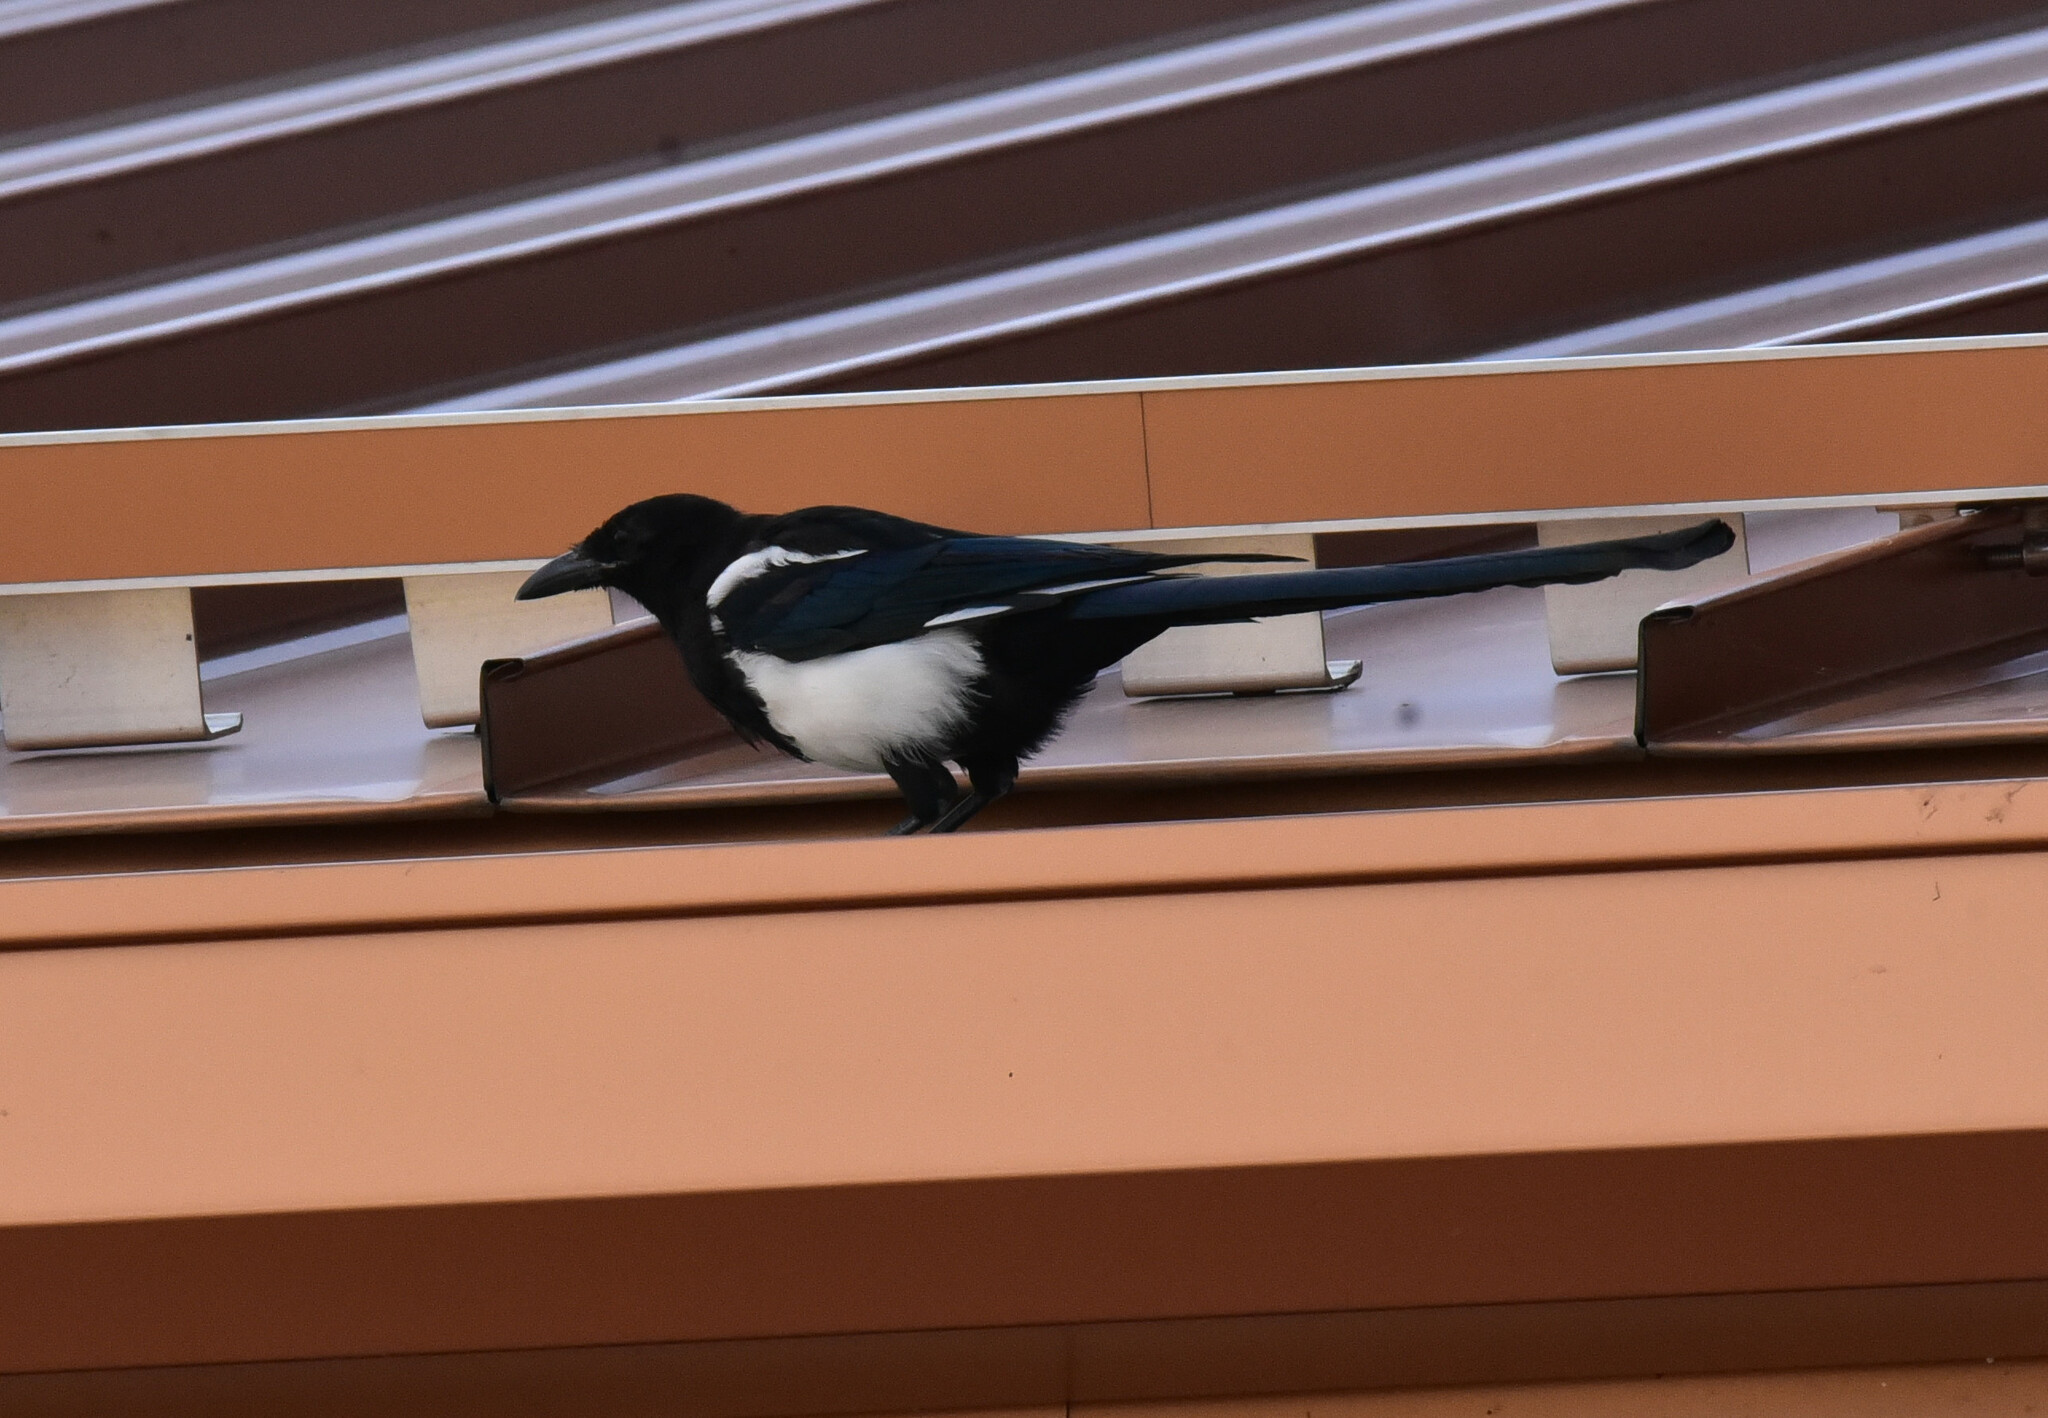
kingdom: Animalia
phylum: Chordata
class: Aves
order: Passeriformes
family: Corvidae
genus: Pica
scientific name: Pica hudsonia
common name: Black-billed magpie
